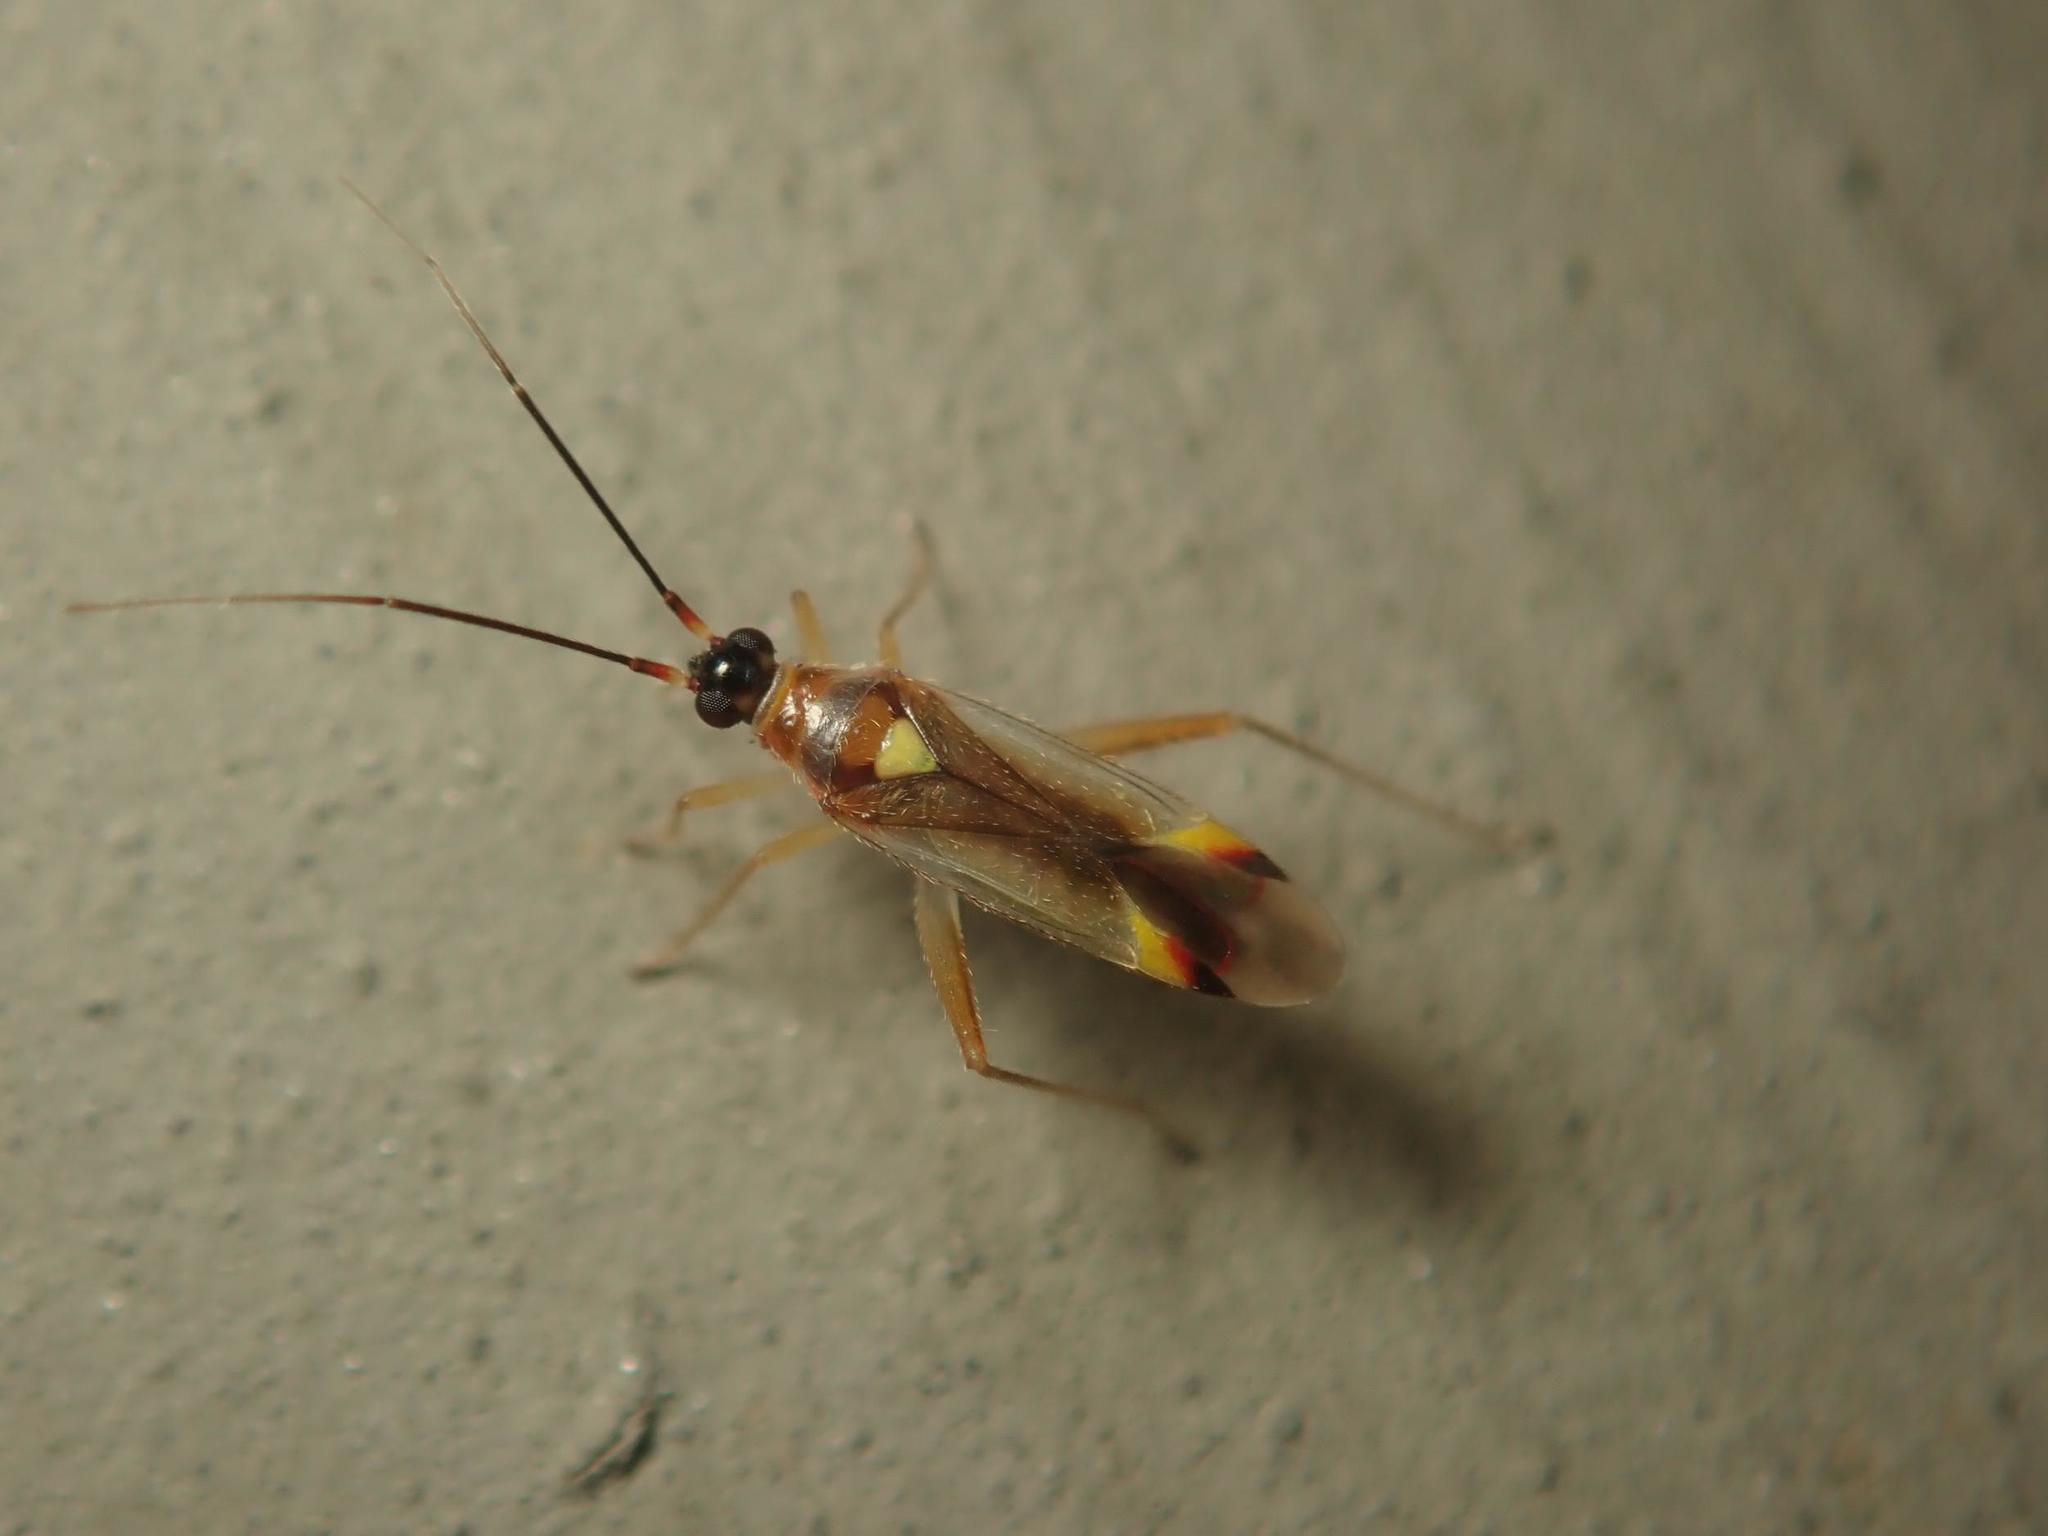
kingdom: Animalia
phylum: Arthropoda
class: Insecta
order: Hemiptera
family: Miridae
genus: Campyloneura
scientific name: Campyloneura virgula
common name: Predatory bug
